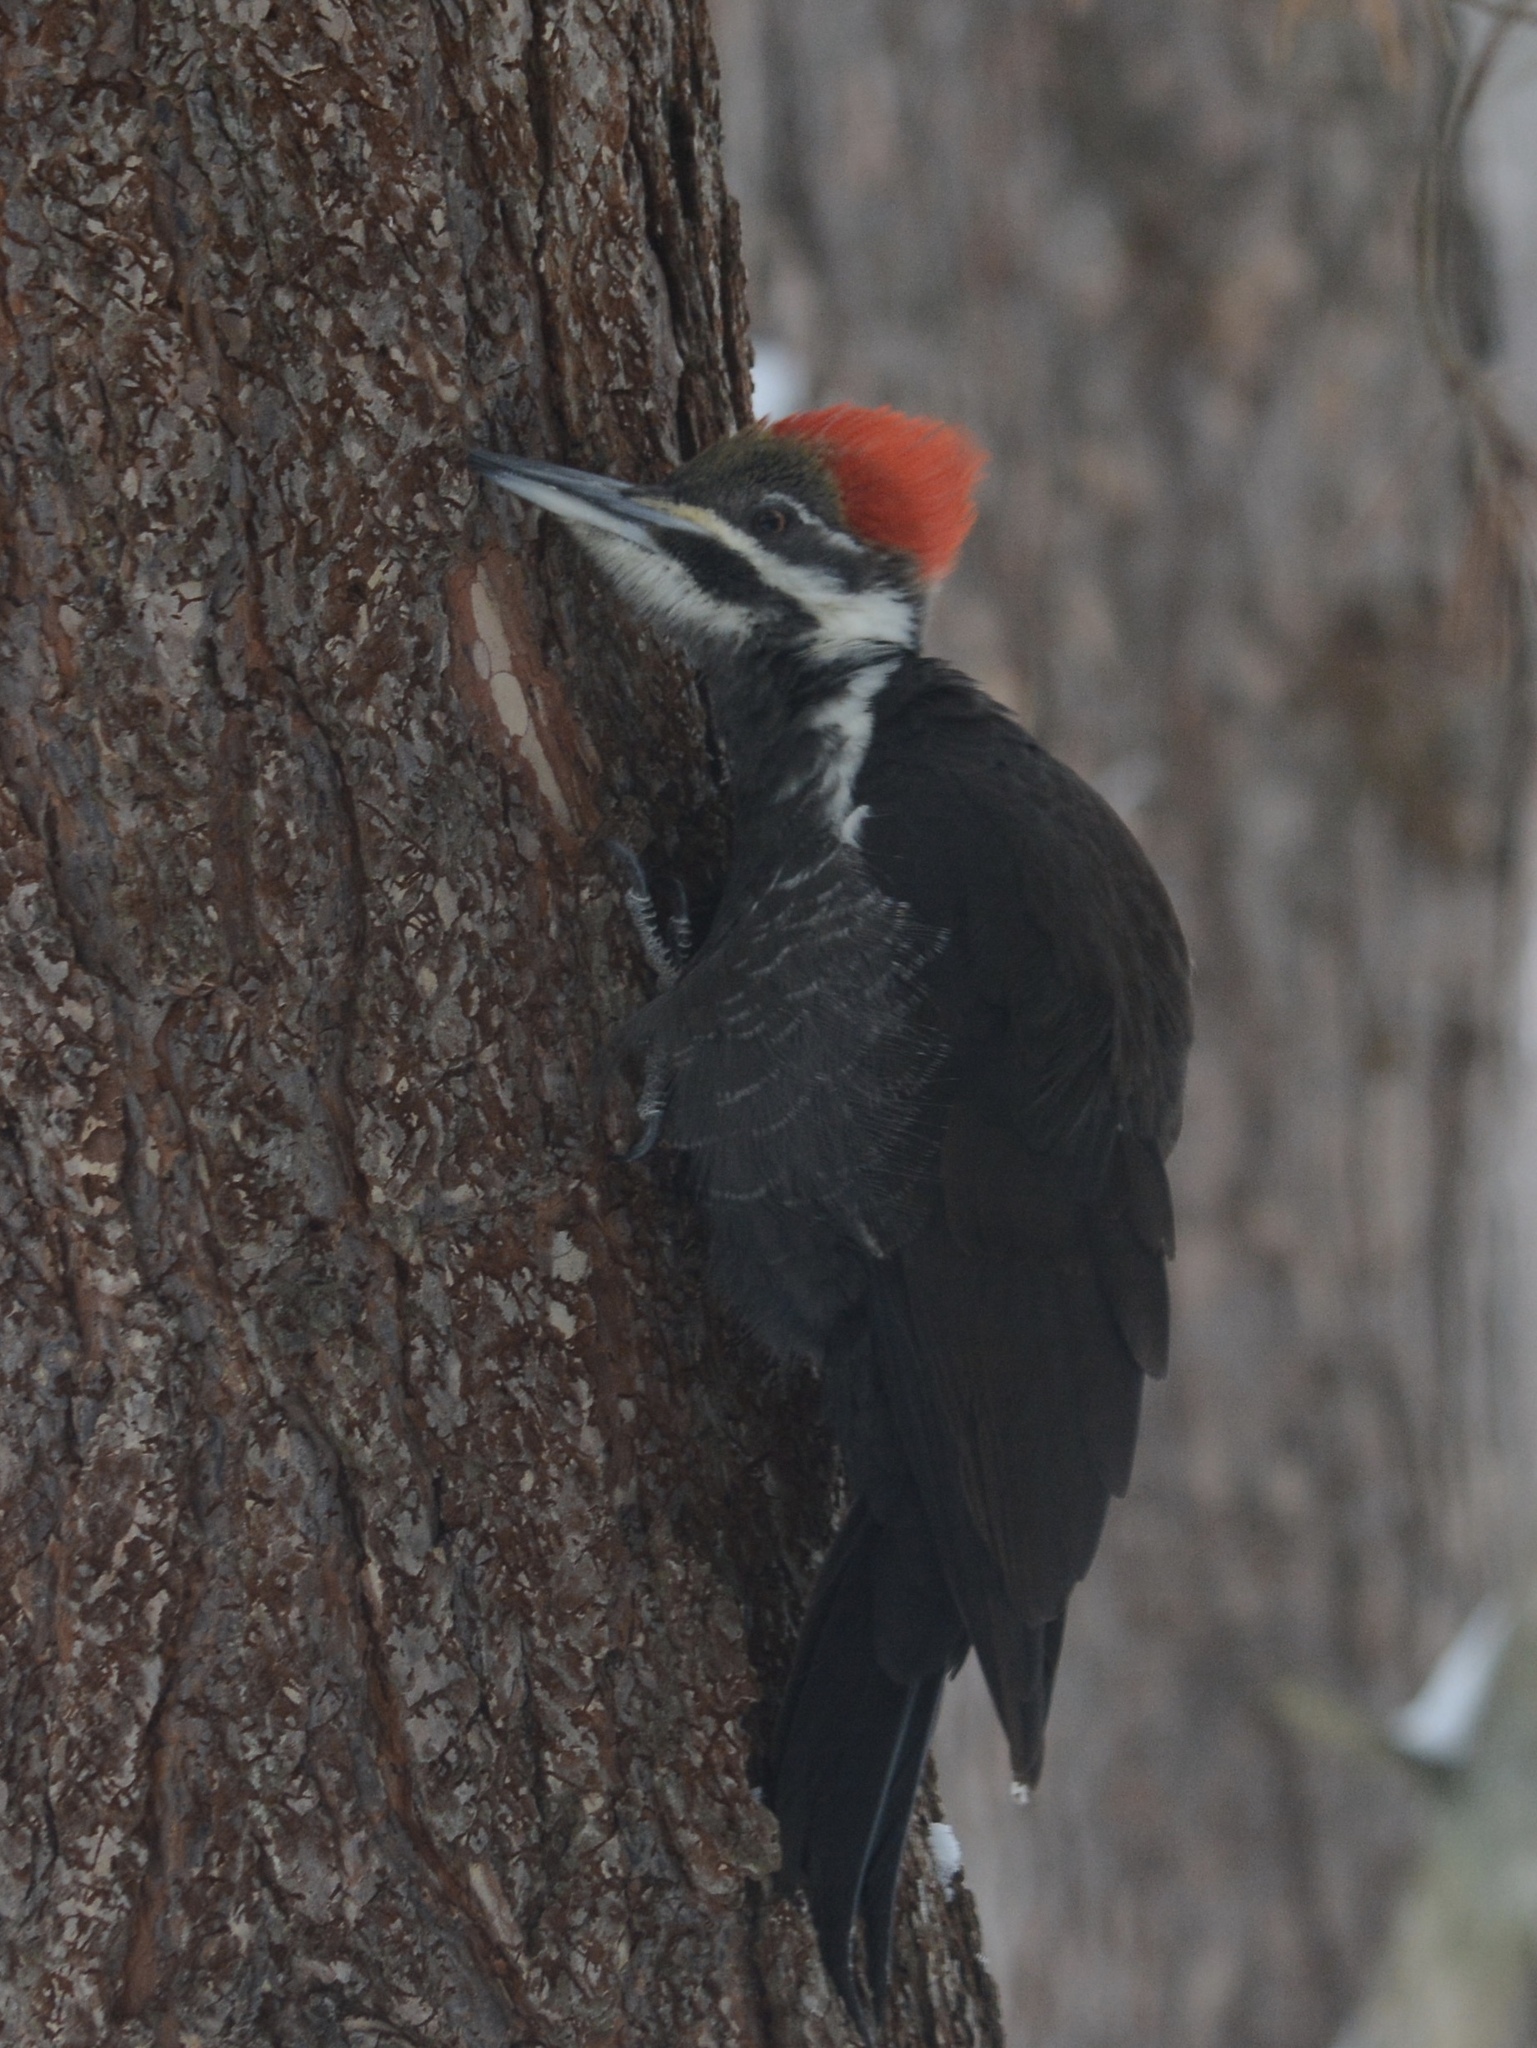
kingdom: Animalia
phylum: Chordata
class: Aves
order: Piciformes
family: Picidae
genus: Dryocopus
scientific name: Dryocopus pileatus
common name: Pileated woodpecker
